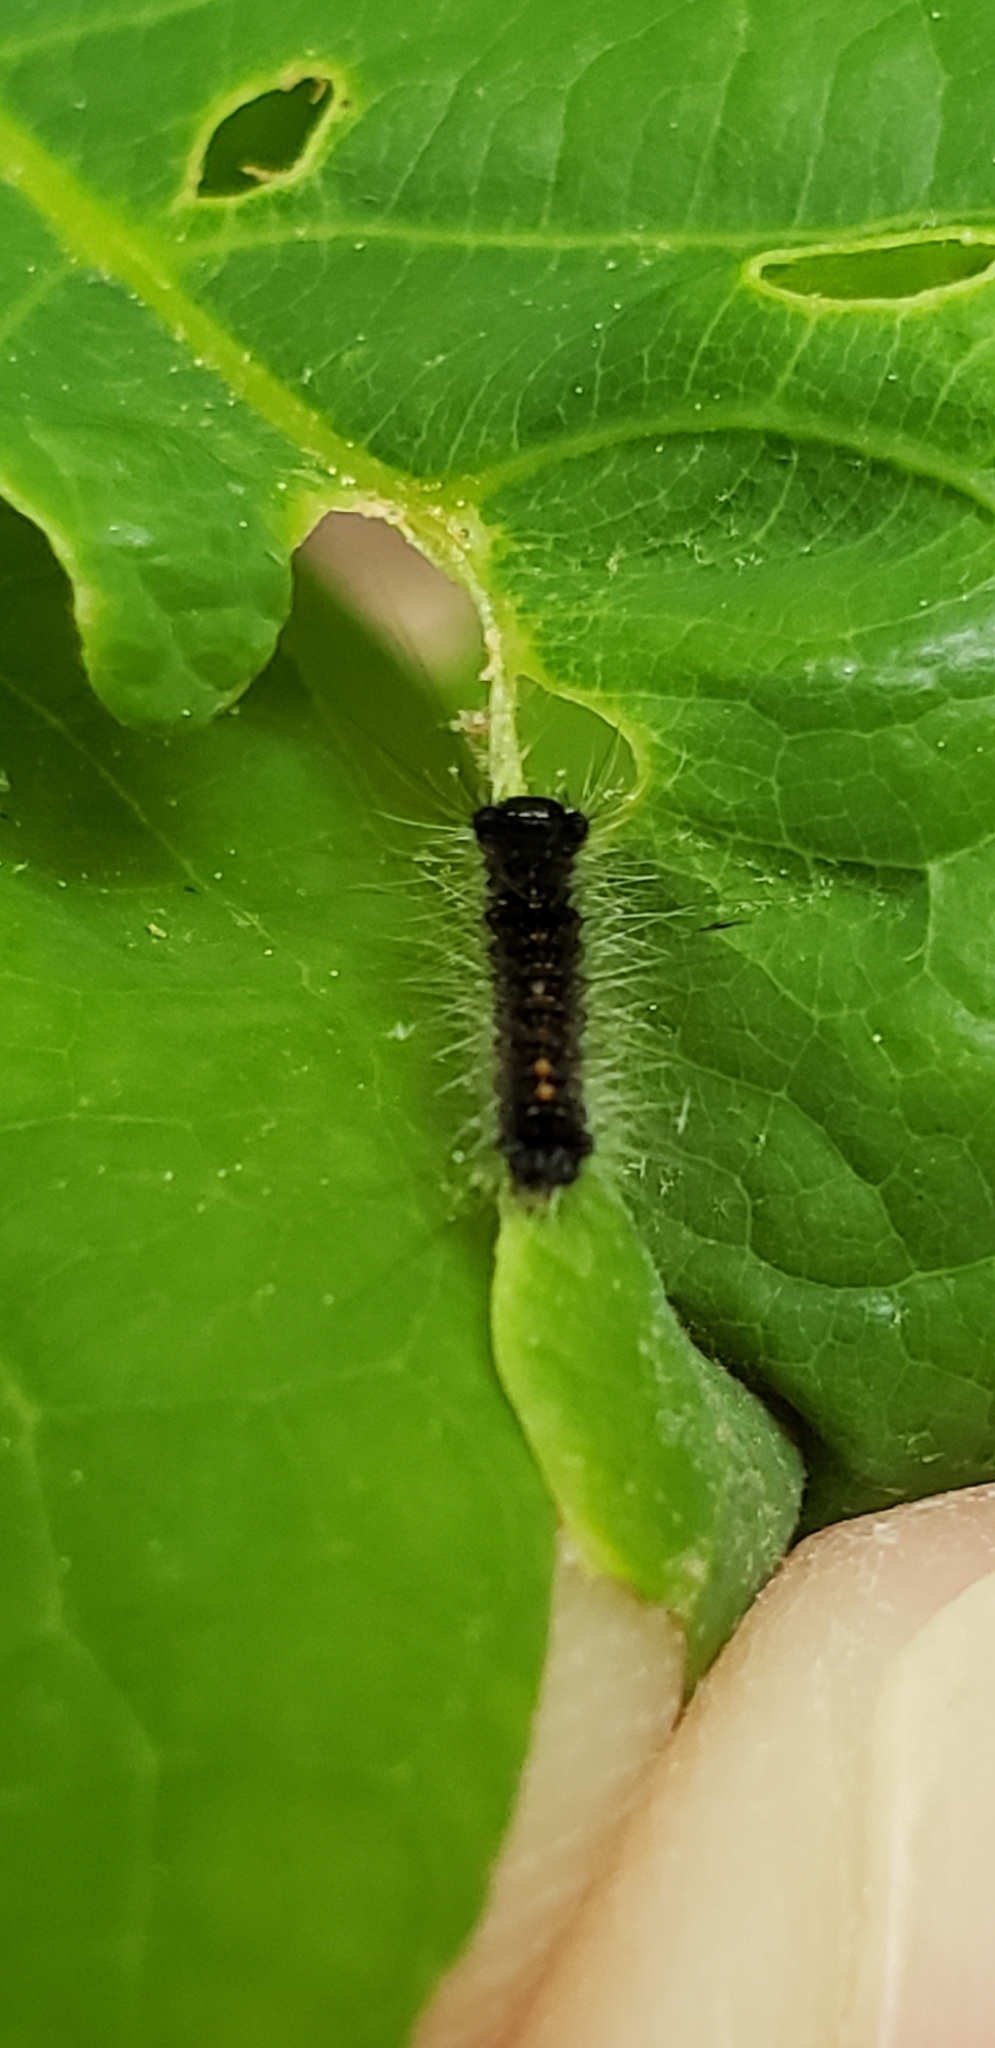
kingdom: Animalia
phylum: Arthropoda
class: Insecta
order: Lepidoptera
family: Erebidae
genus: Lymantria
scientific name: Lymantria dispar
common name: Gypsy moth
